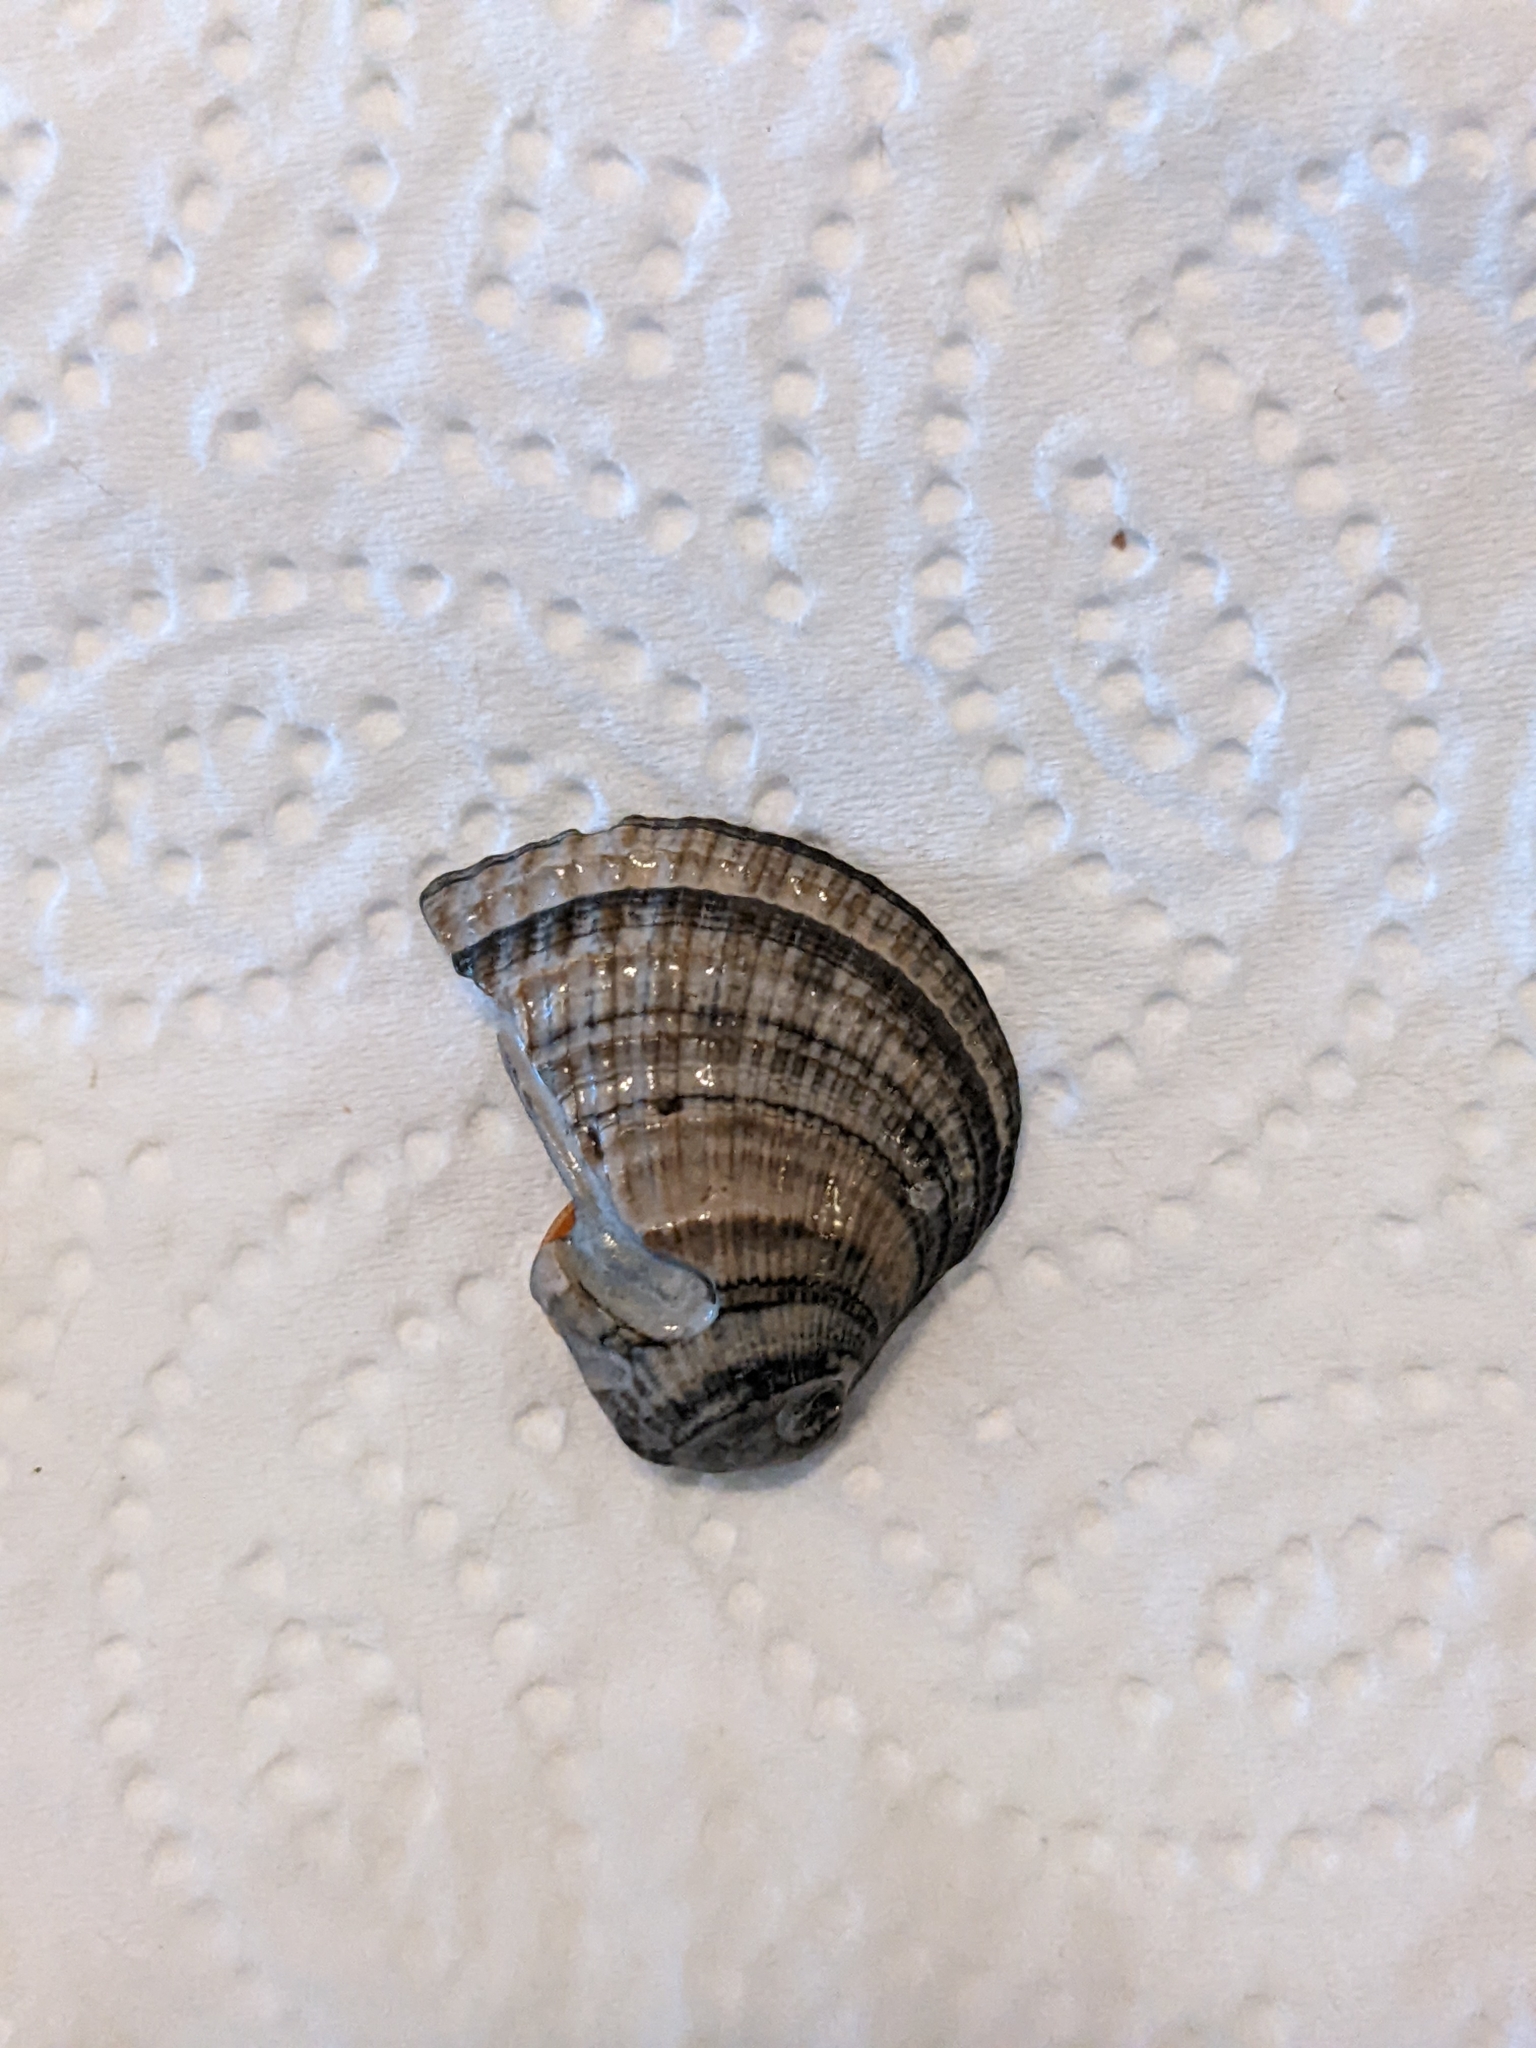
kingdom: Animalia
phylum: Mollusca
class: Bivalvia
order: Venerida
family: Veneridae
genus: Chione
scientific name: Chione elevata
